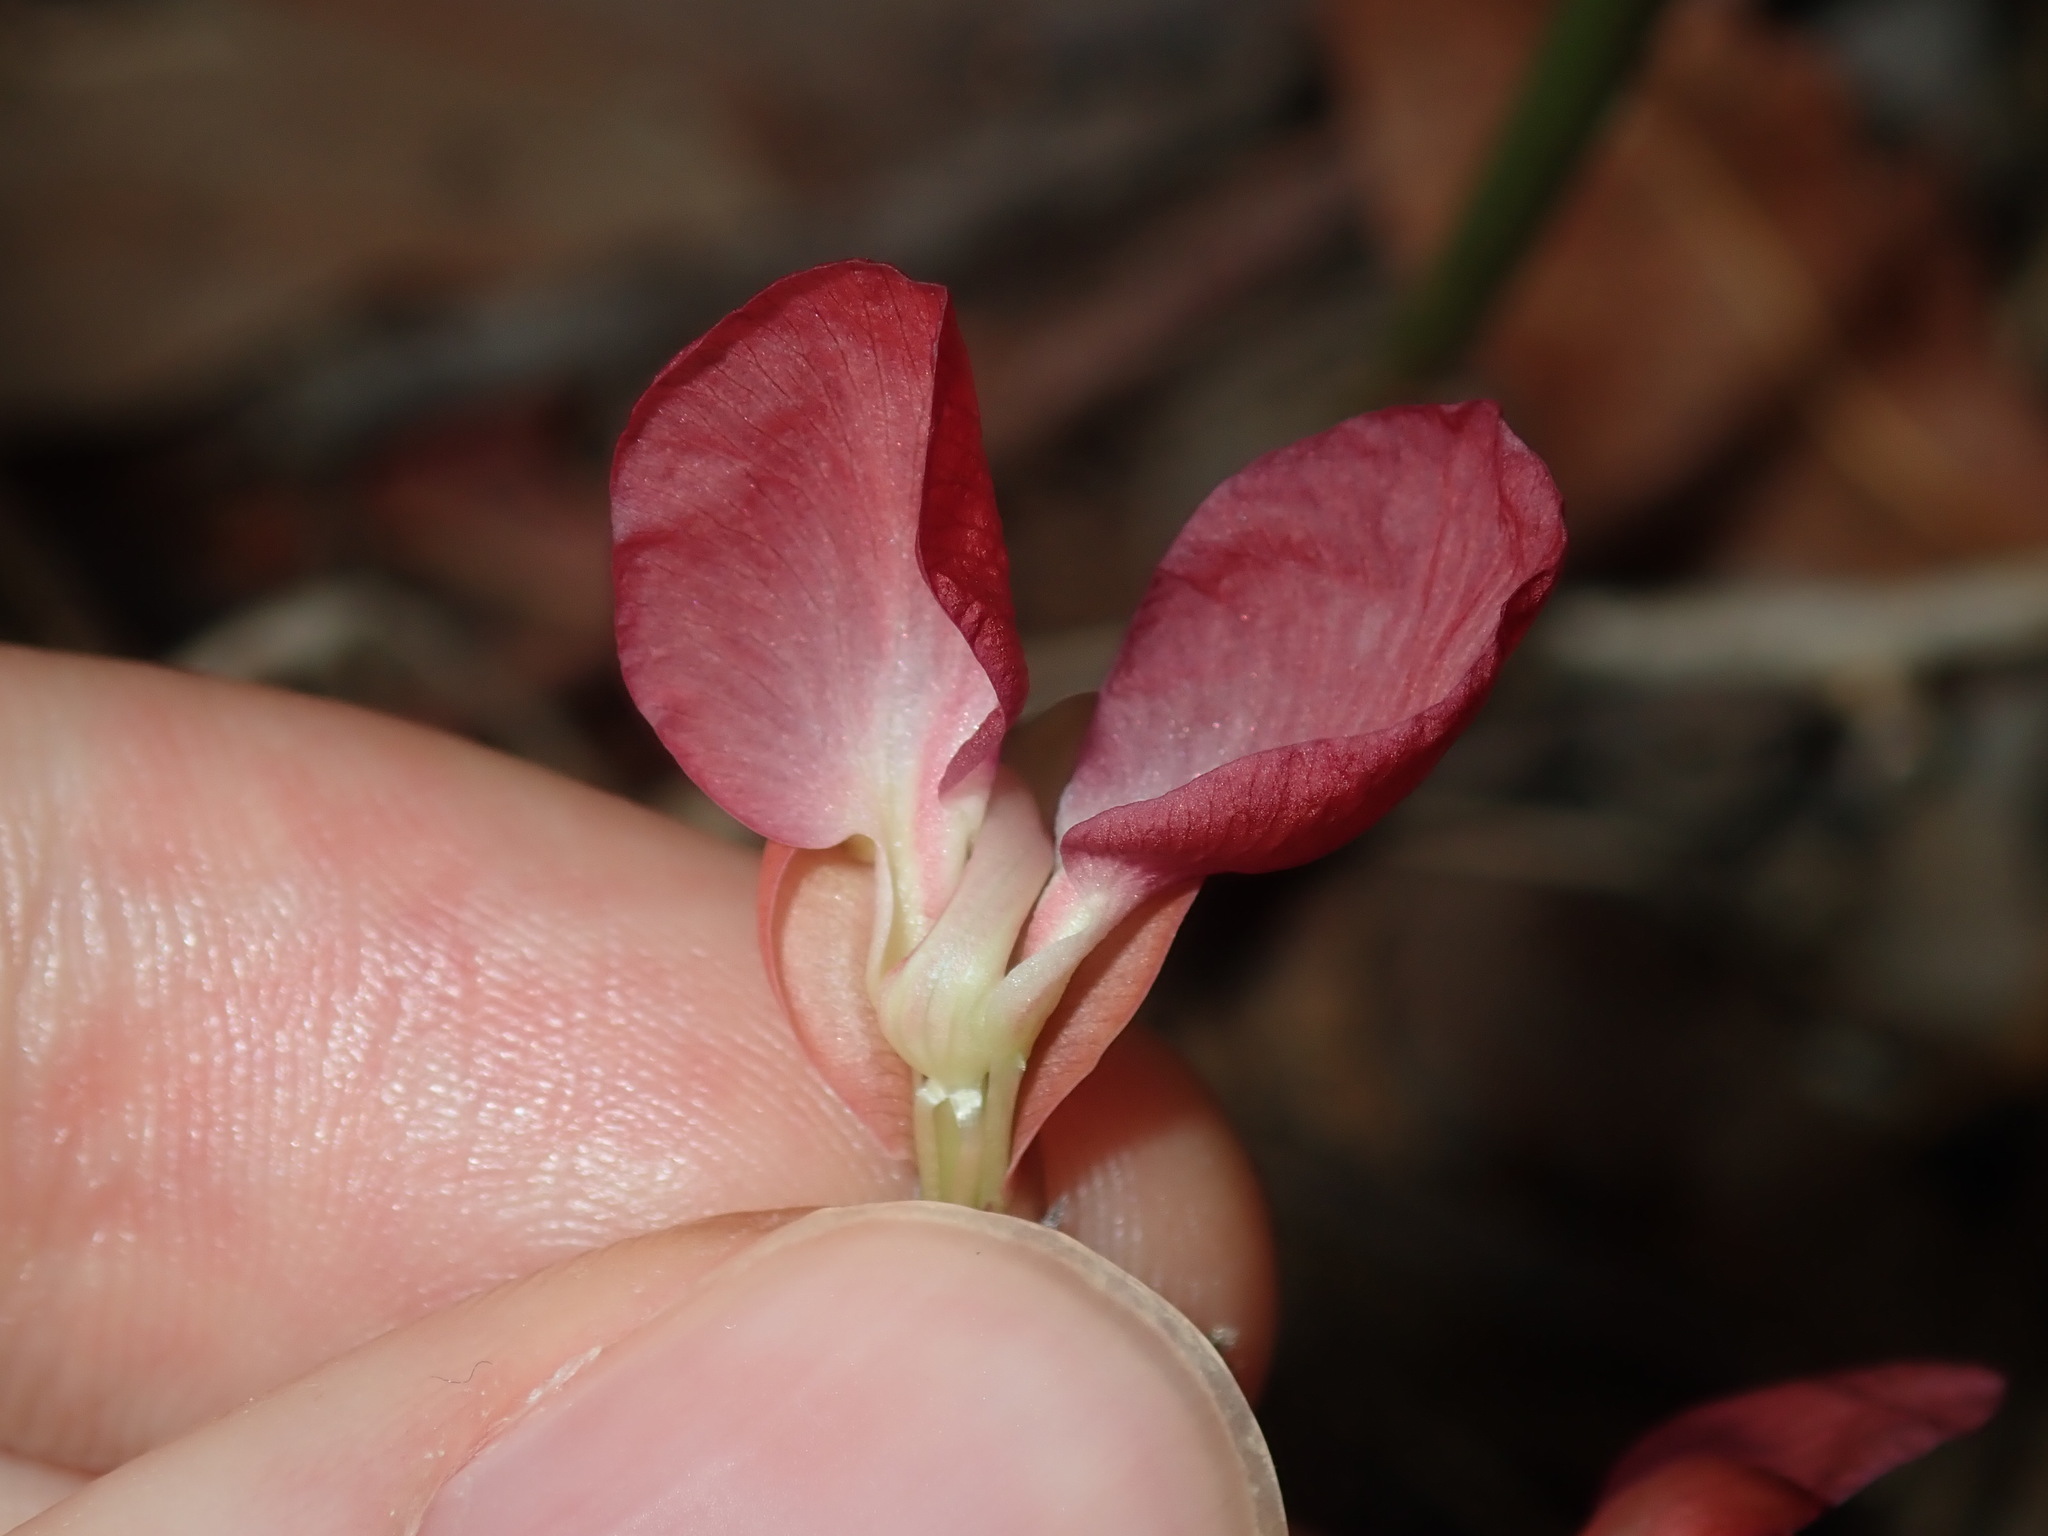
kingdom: Plantae
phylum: Tracheophyta
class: Magnoliopsida
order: Fabales
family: Fabaceae
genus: Macroptilium
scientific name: Macroptilium lathyroides
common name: Wild bushbean
